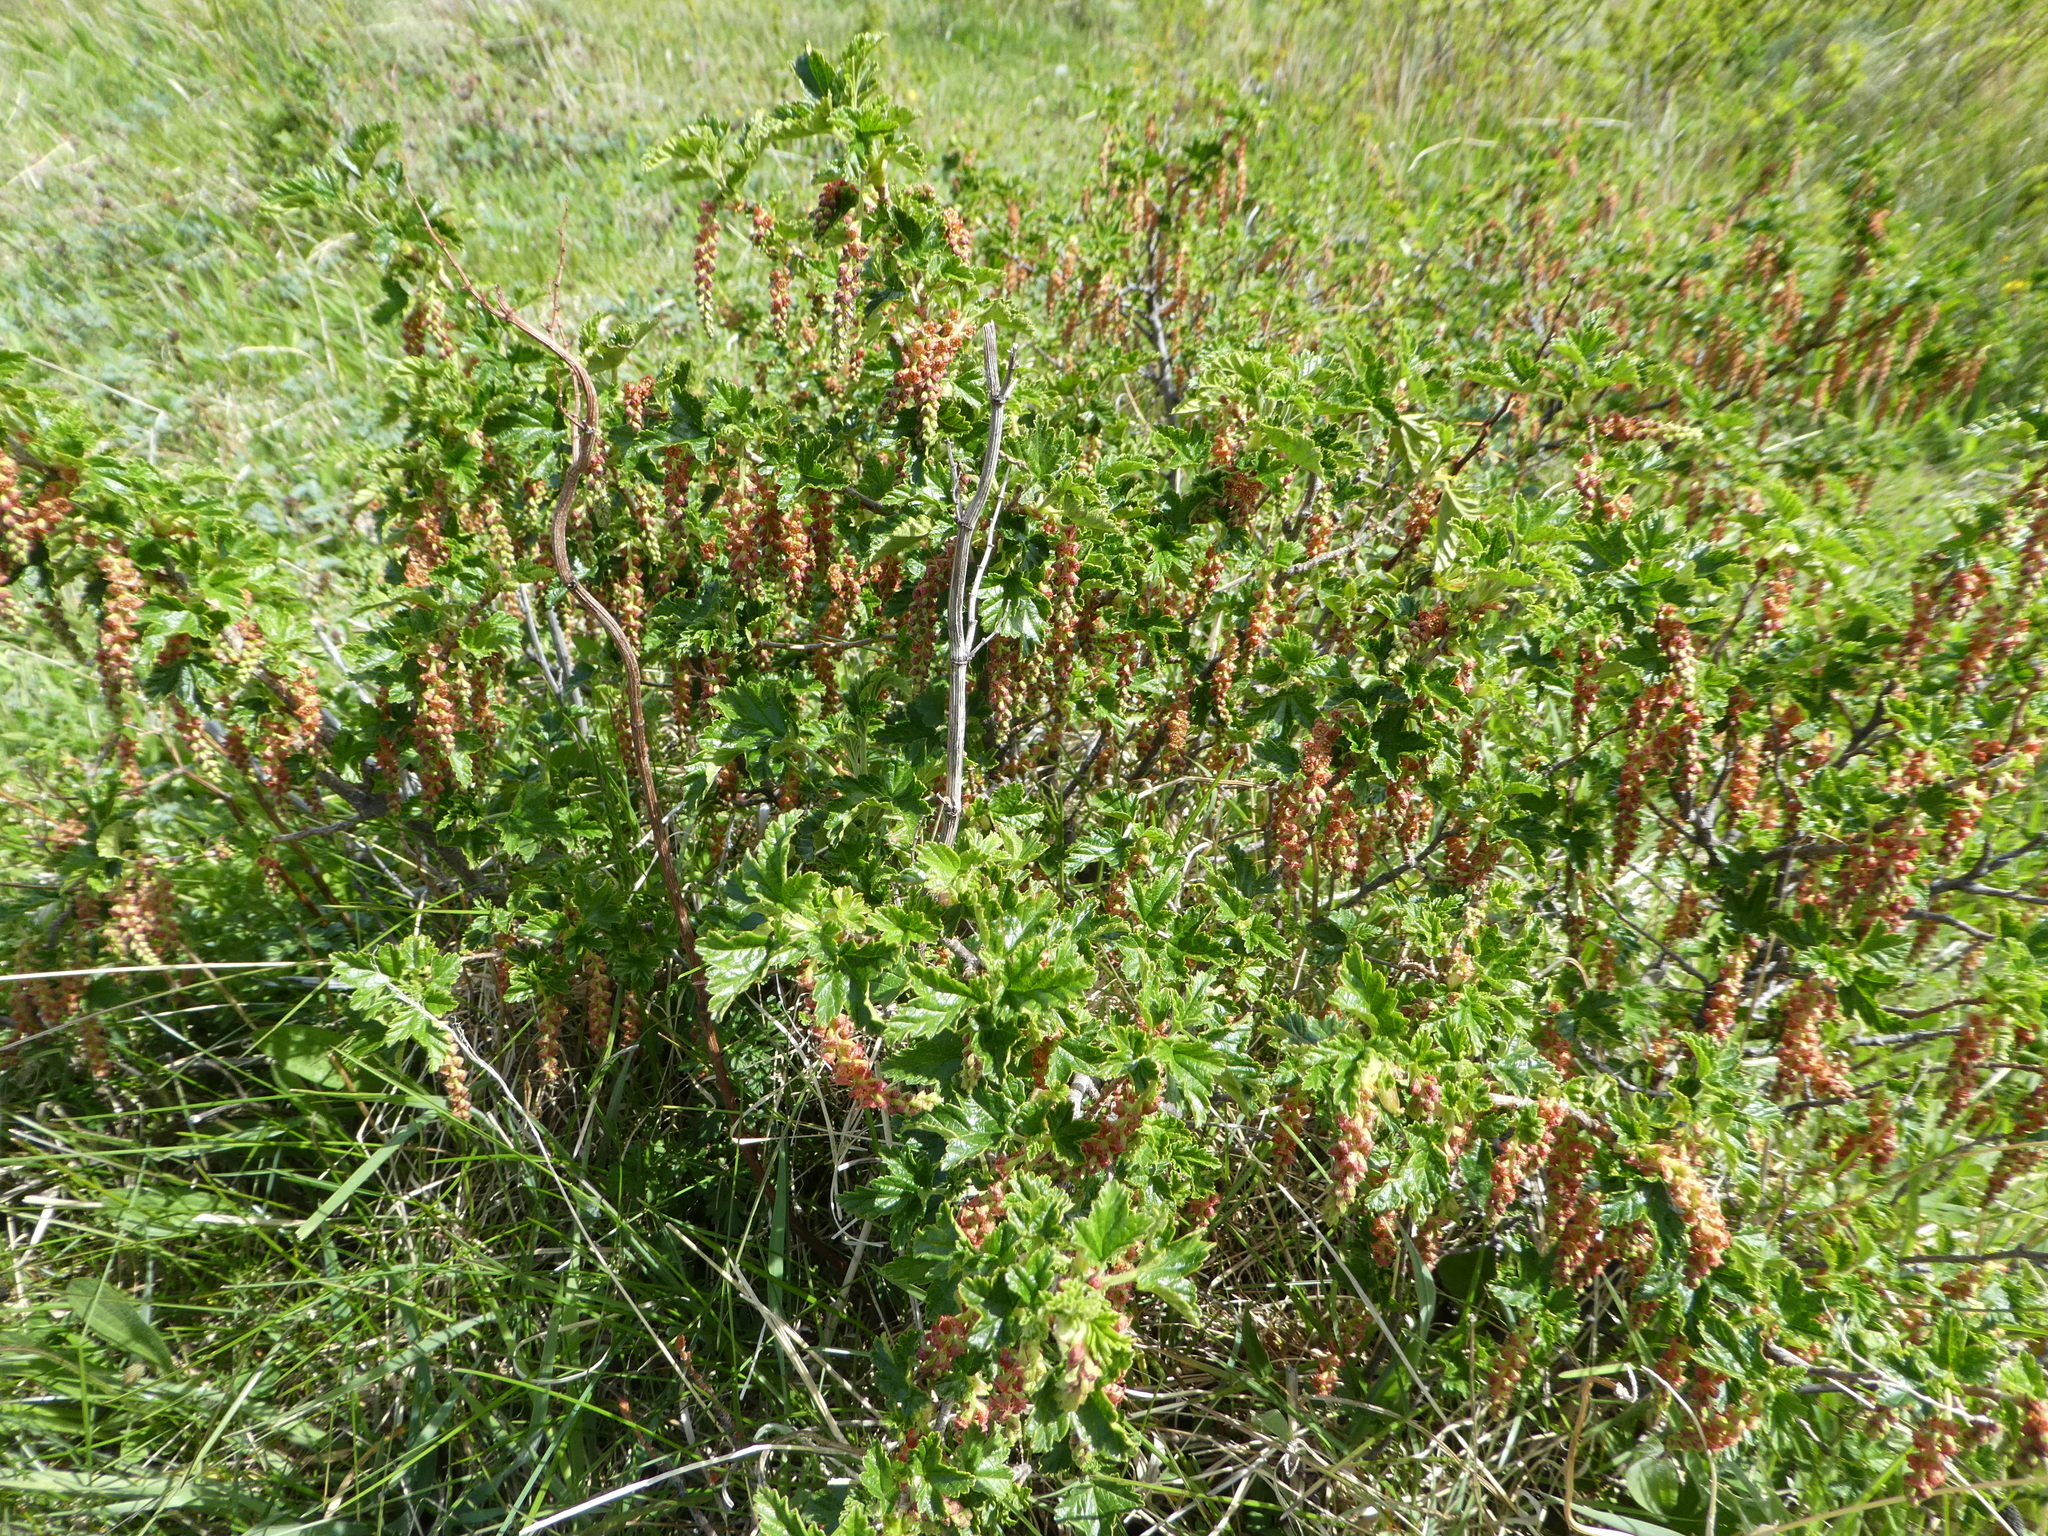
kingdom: Plantae
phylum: Tracheophyta
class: Magnoliopsida
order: Saxifragales
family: Grossulariaceae
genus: Ribes
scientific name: Ribes magellanicum
